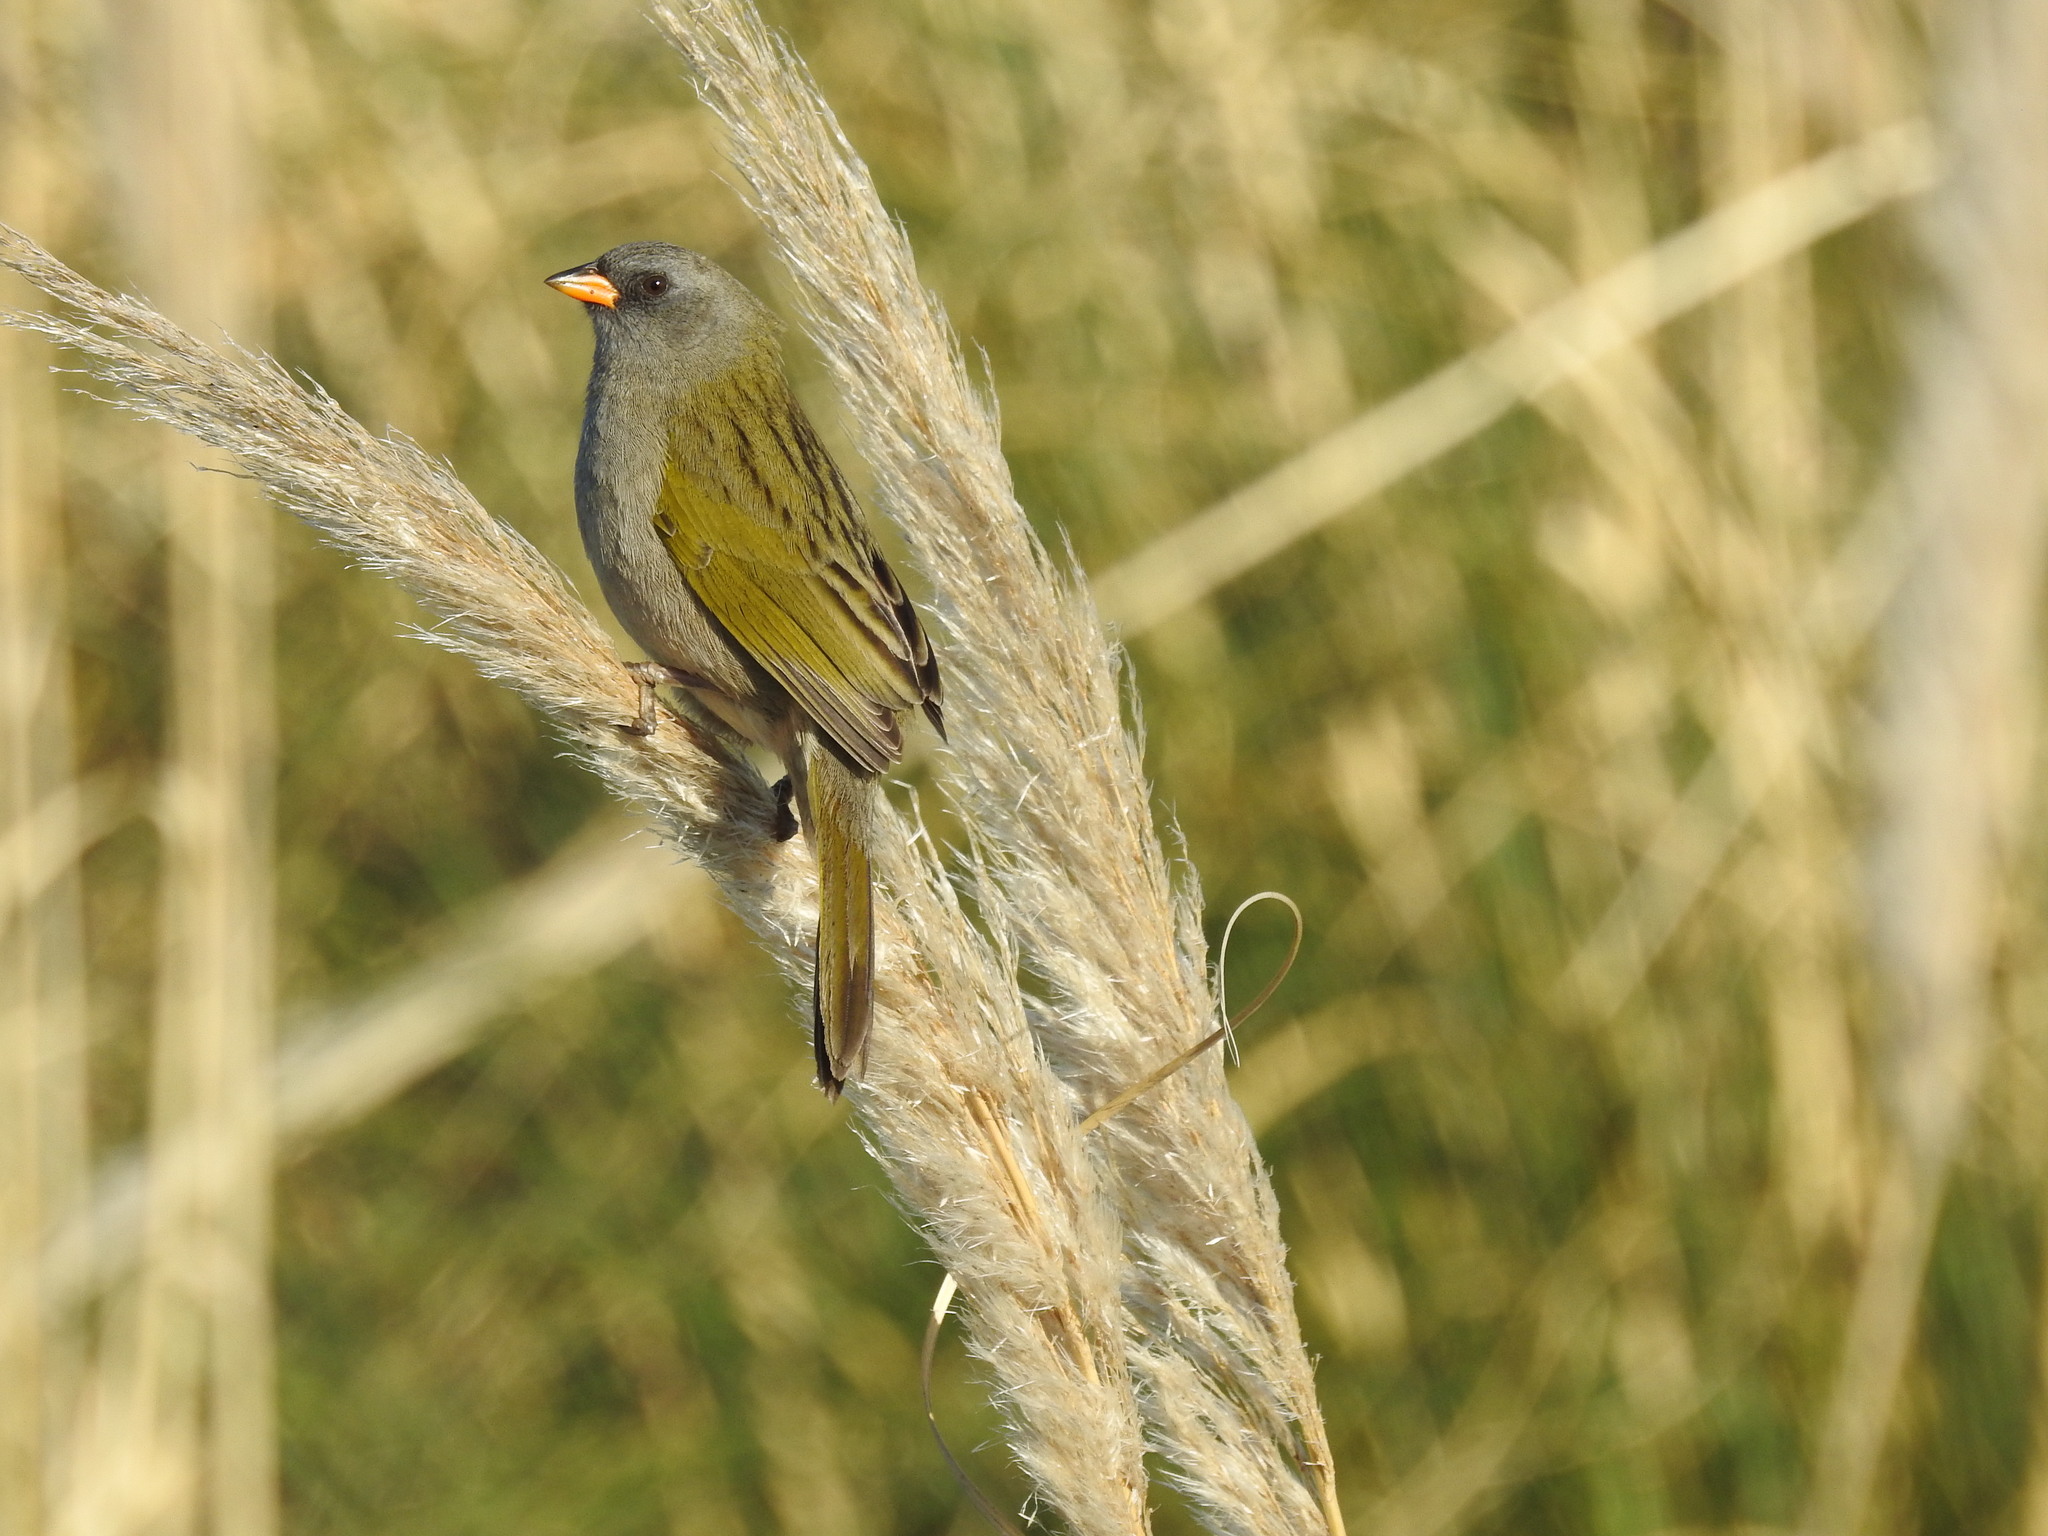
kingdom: Animalia
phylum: Chordata
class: Aves
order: Passeriformes
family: Thraupidae
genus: Embernagra
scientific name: Embernagra platensis
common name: Pampa finch
